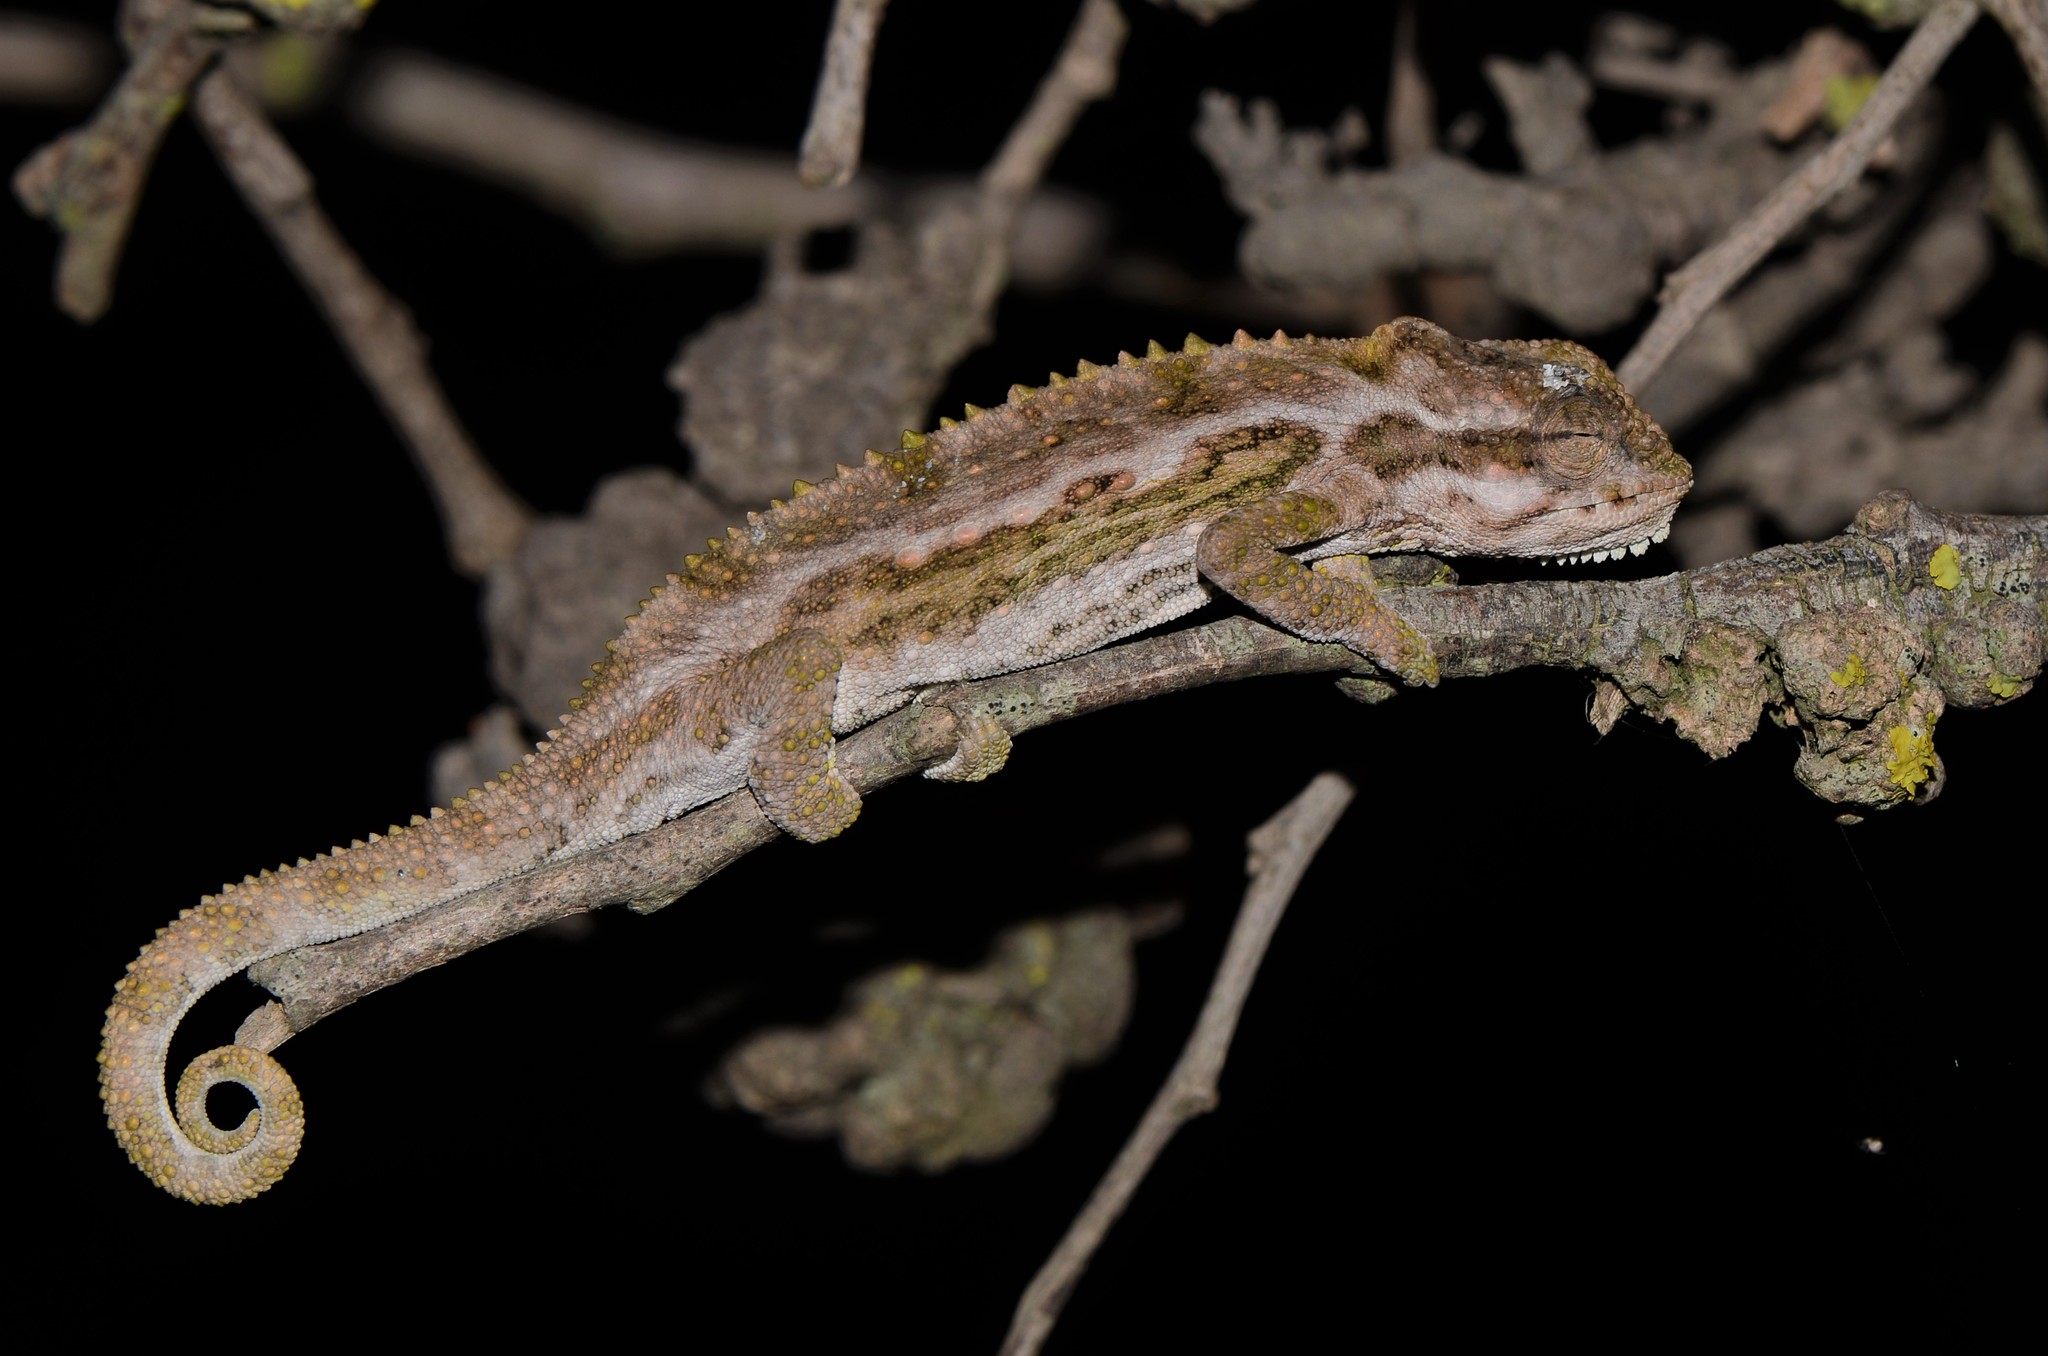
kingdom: Animalia
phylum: Chordata
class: Squamata
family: Chamaeleonidae
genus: Bradypodion
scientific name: Bradypodion pumilum
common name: Cape dwarf chameleon
